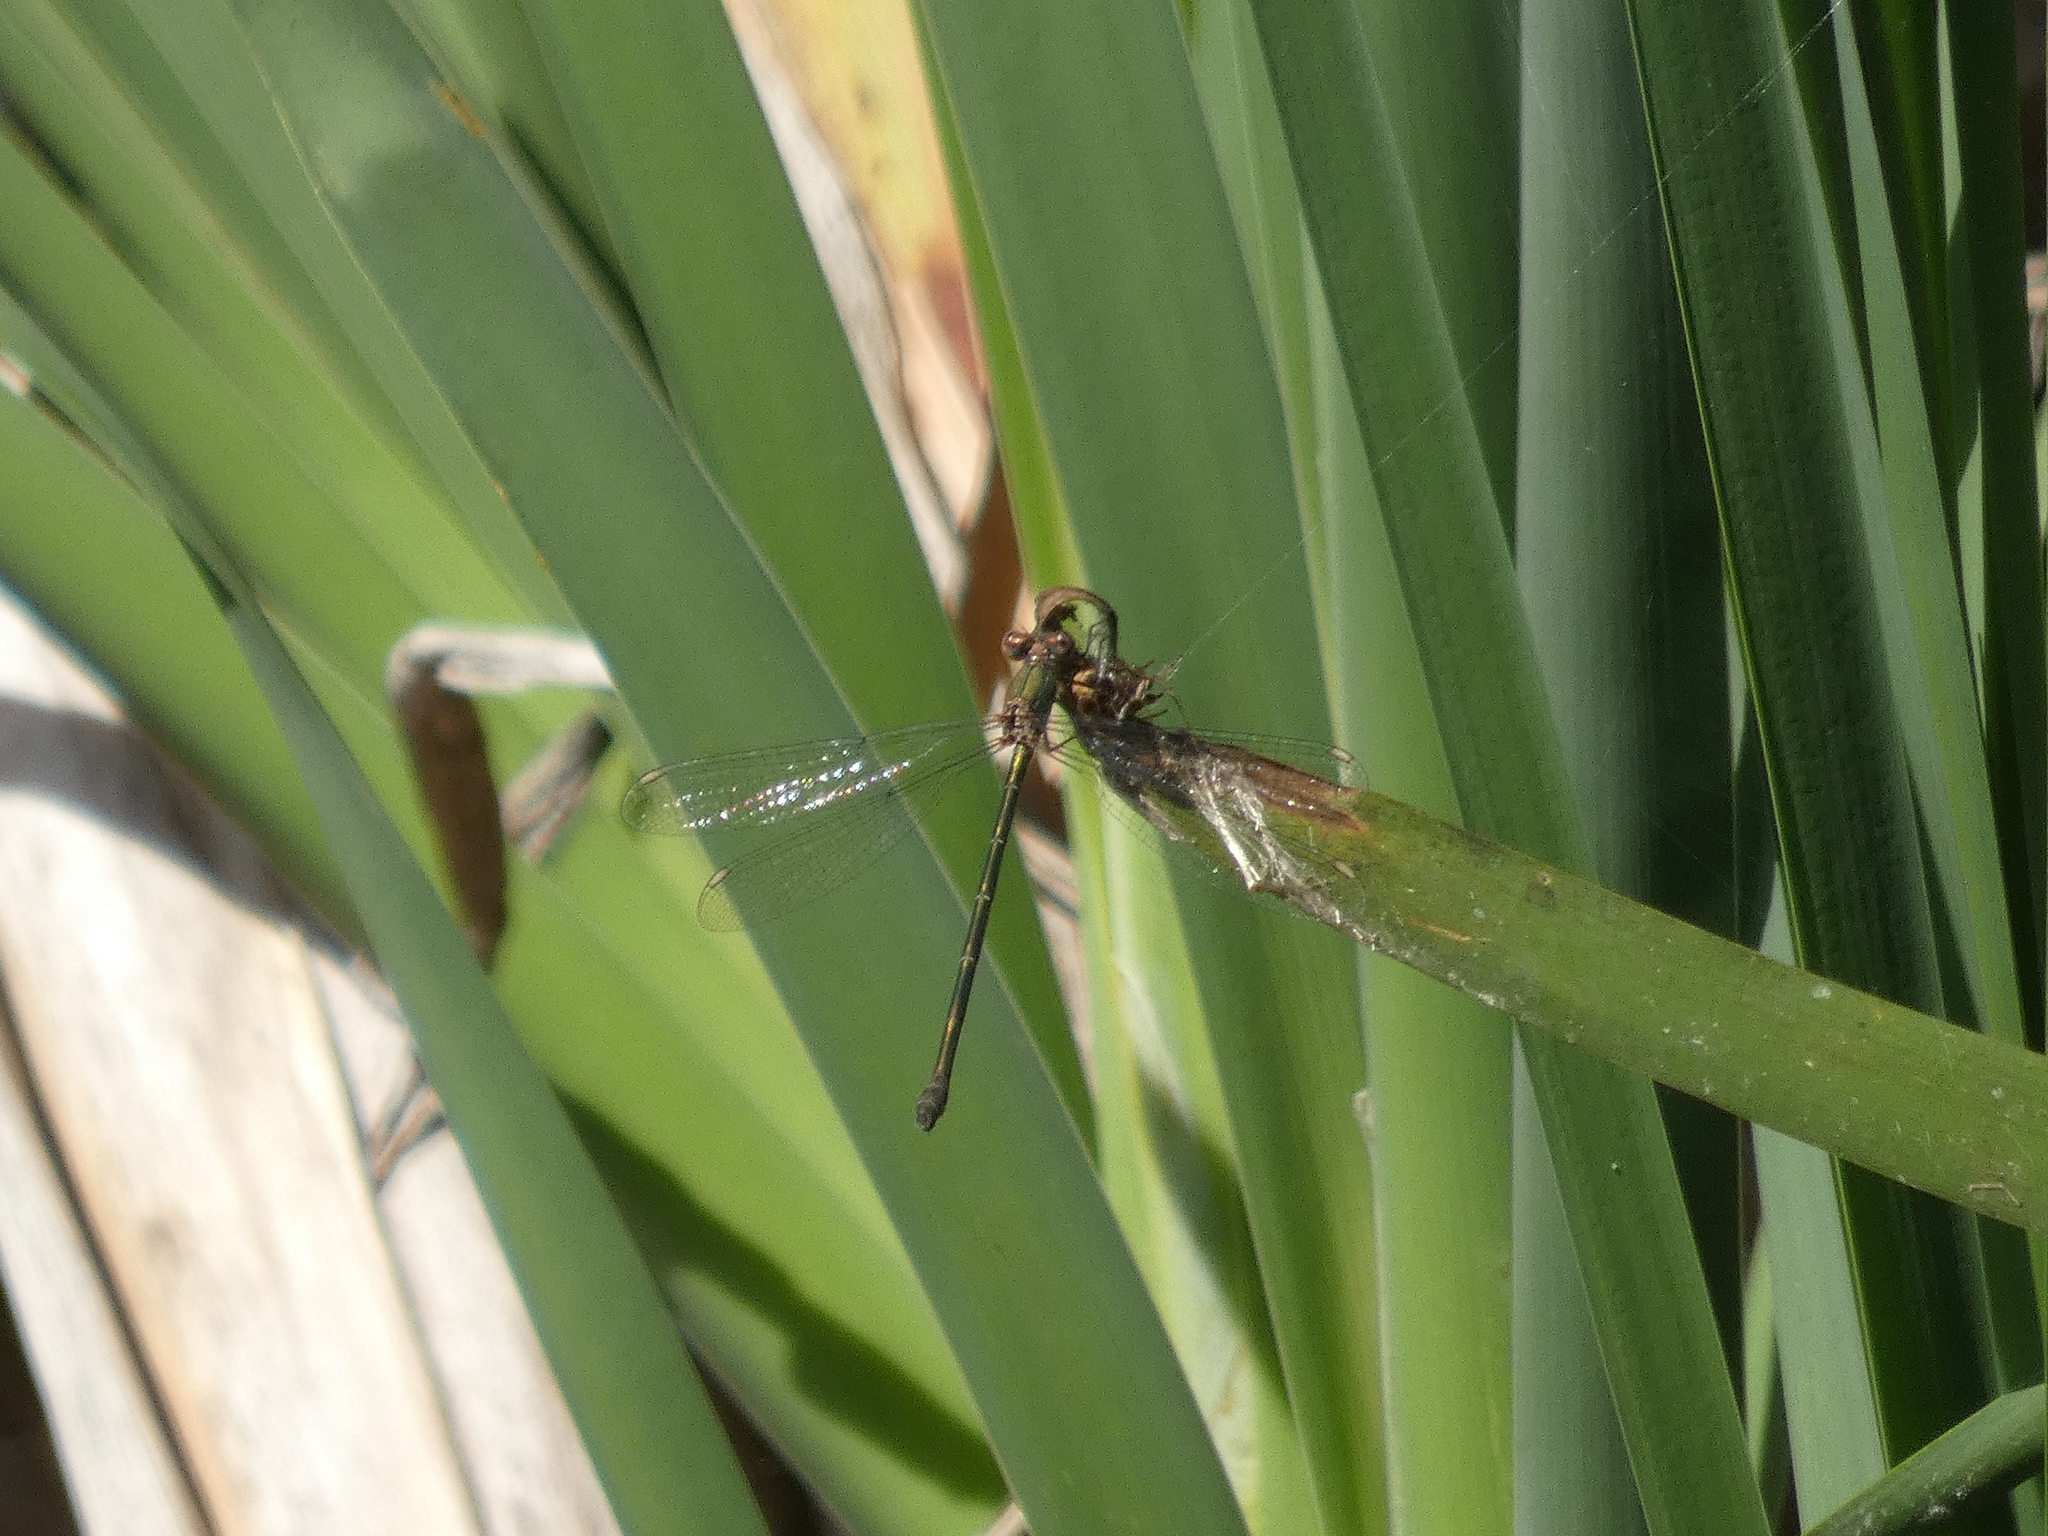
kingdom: Animalia
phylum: Arthropoda
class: Insecta
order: Odonata
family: Lestidae
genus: Chalcolestes
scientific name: Chalcolestes viridis
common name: Green emerald damselfly
